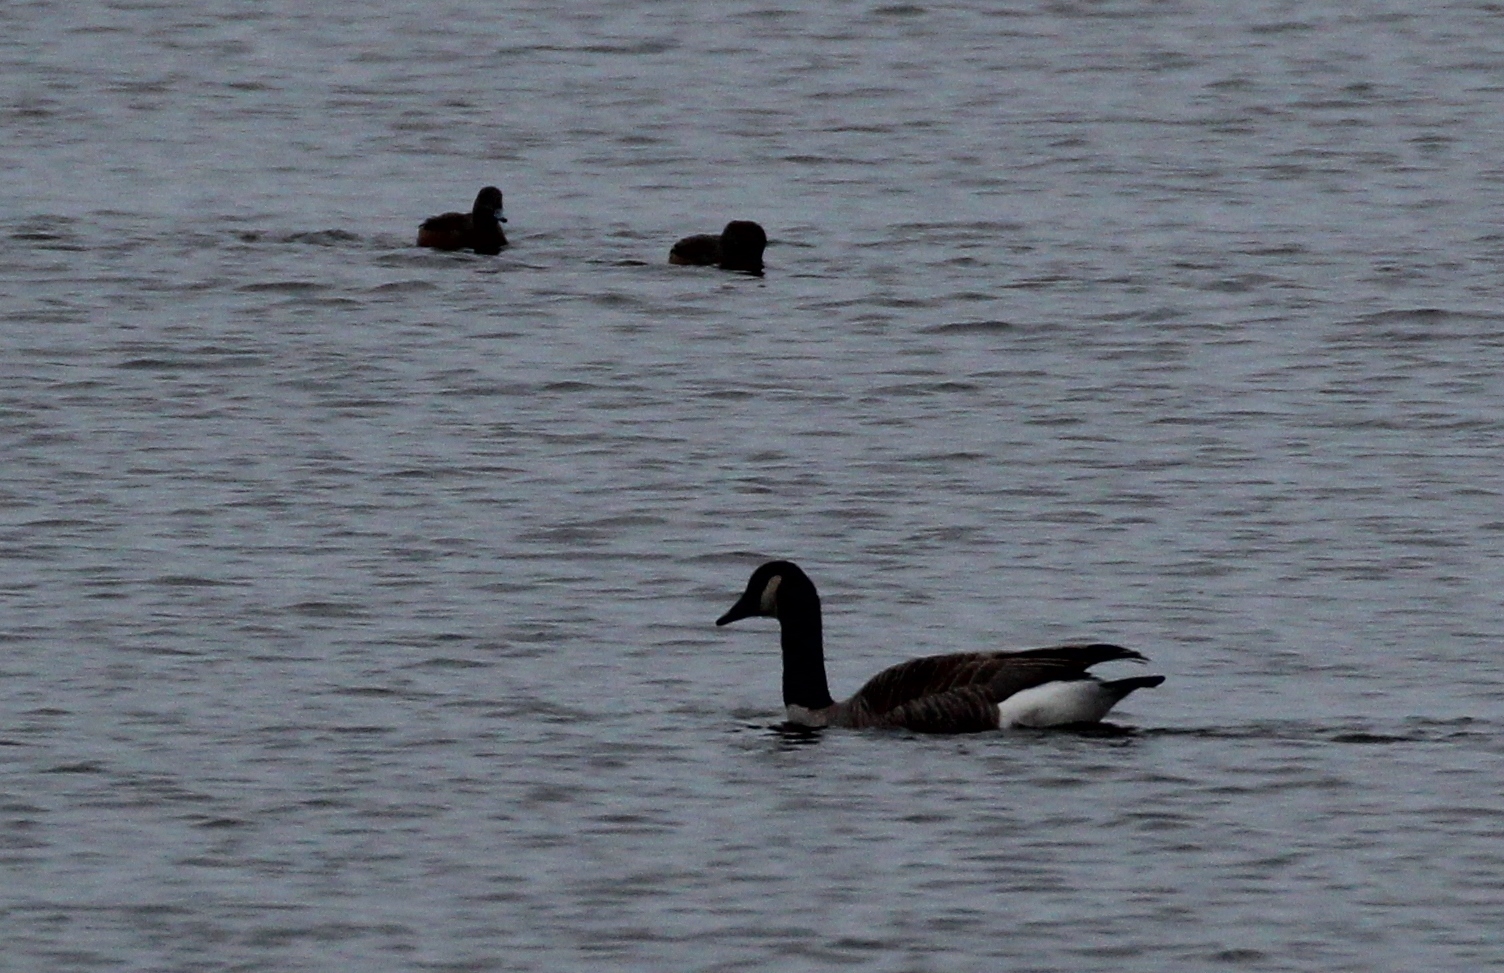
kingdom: Animalia
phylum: Chordata
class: Aves
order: Anseriformes
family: Anatidae
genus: Branta
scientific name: Branta canadensis
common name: Canada goose
